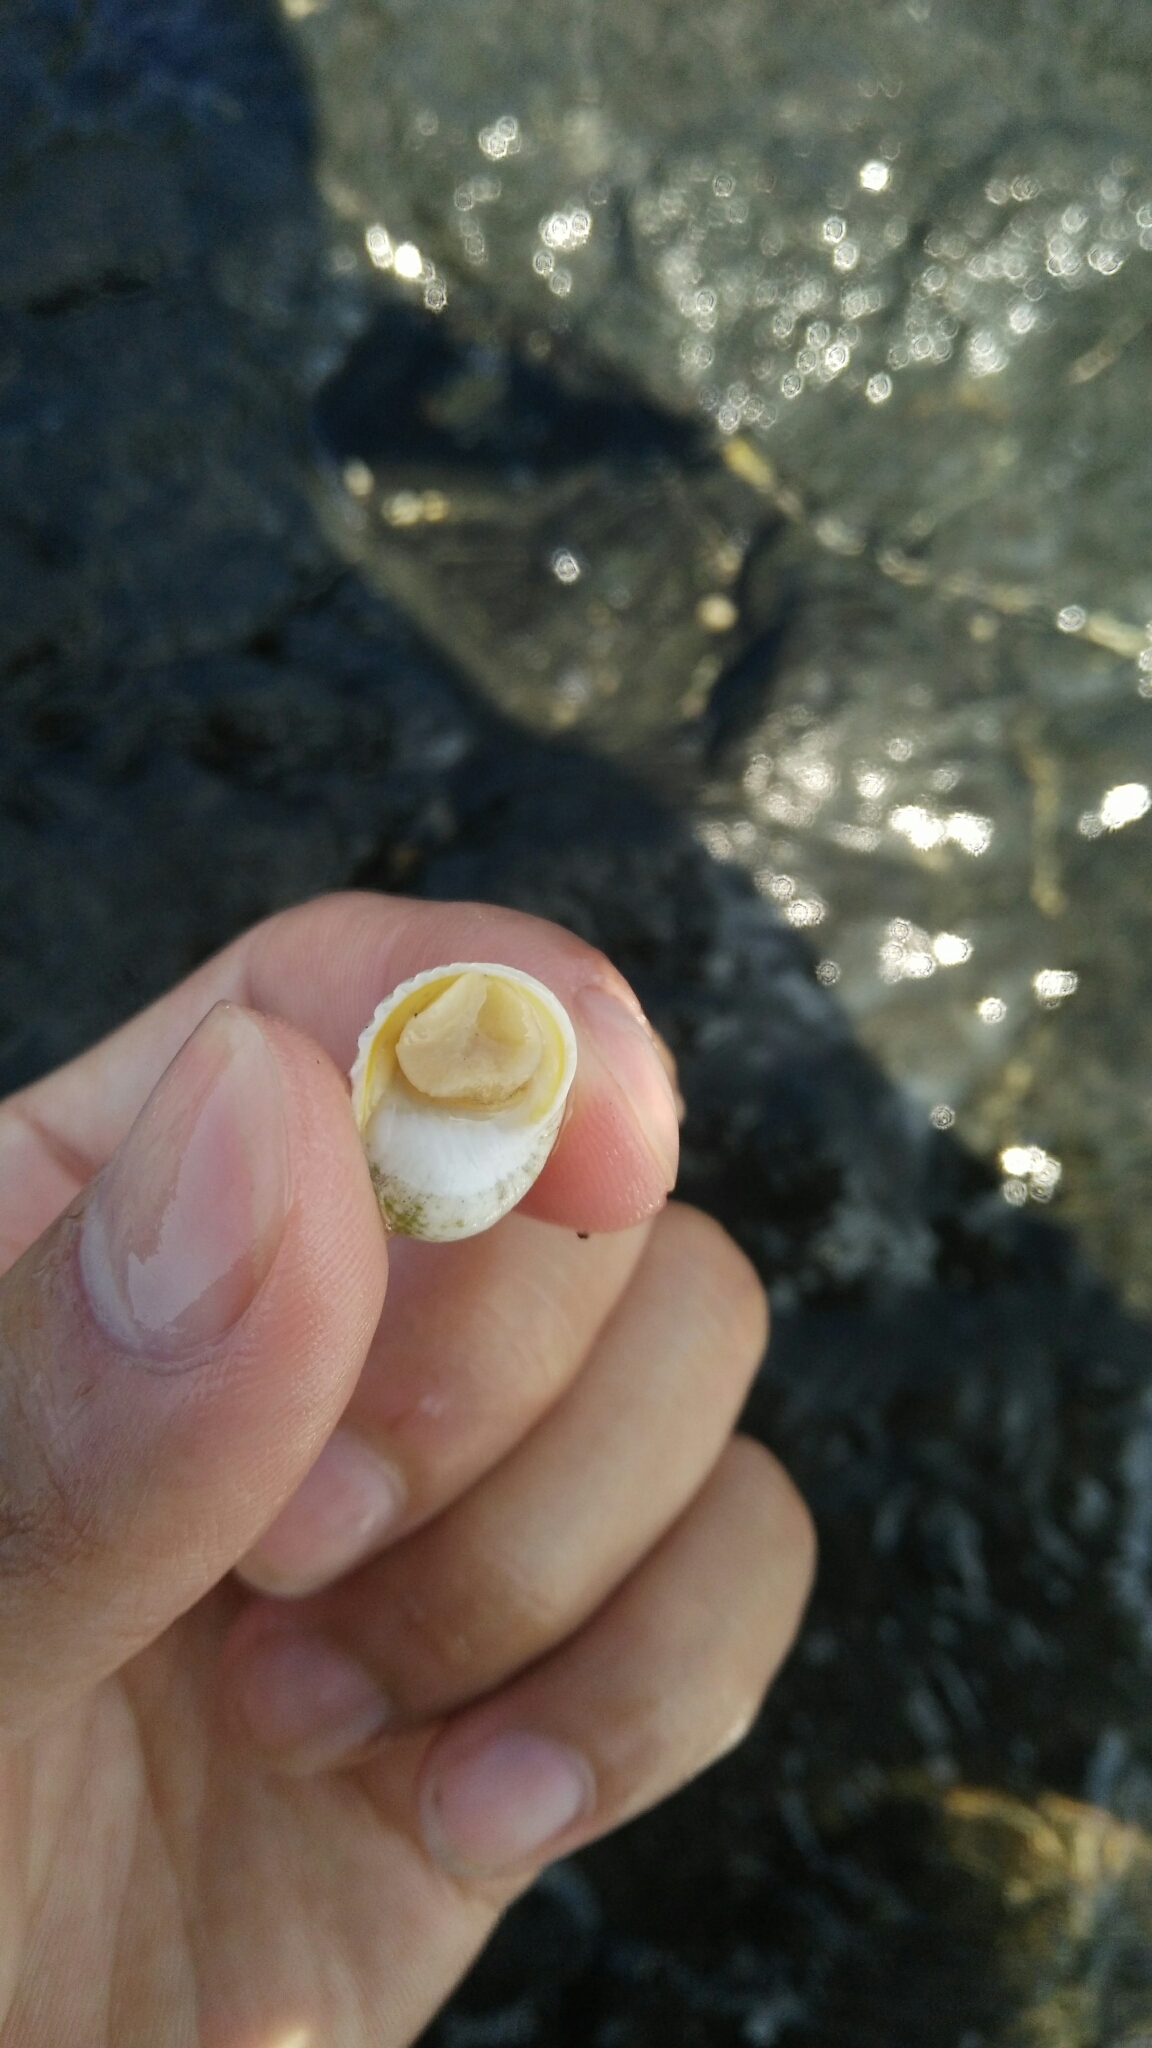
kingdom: Animalia
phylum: Mollusca
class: Gastropoda
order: Cycloneritida
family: Neritidae
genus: Nerita
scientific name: Nerita plicata
